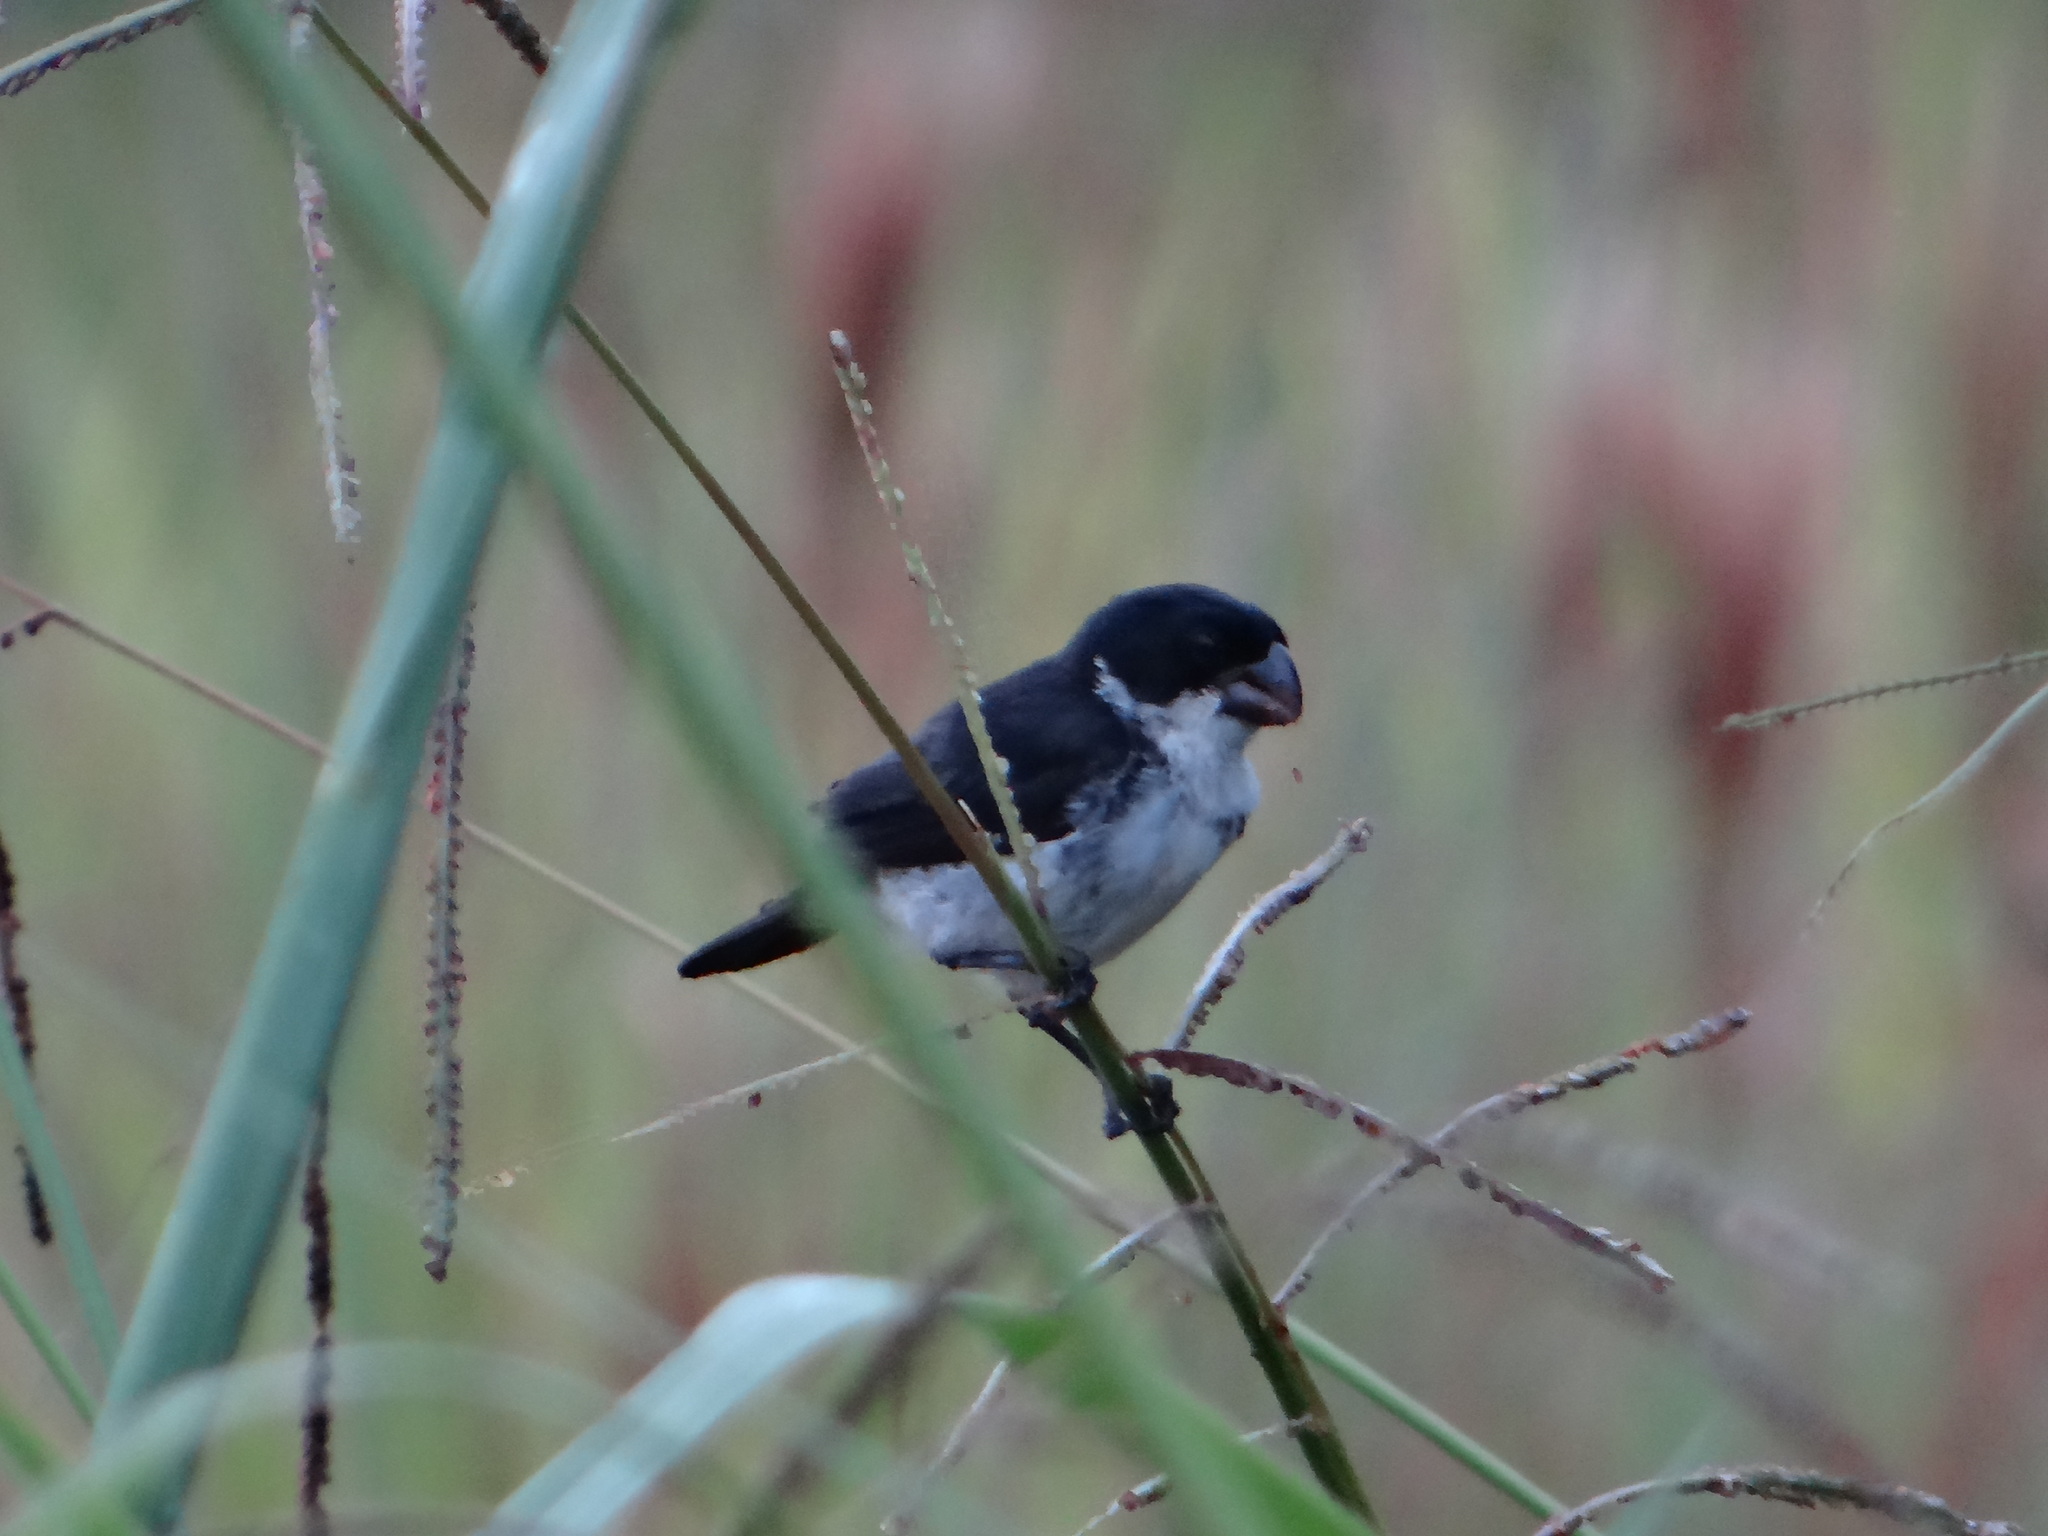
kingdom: Animalia
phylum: Chordata
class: Aves
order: Passeriformes
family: Thraupidae
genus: Sporophila
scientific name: Sporophila americana
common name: Wing-barred seedeater
